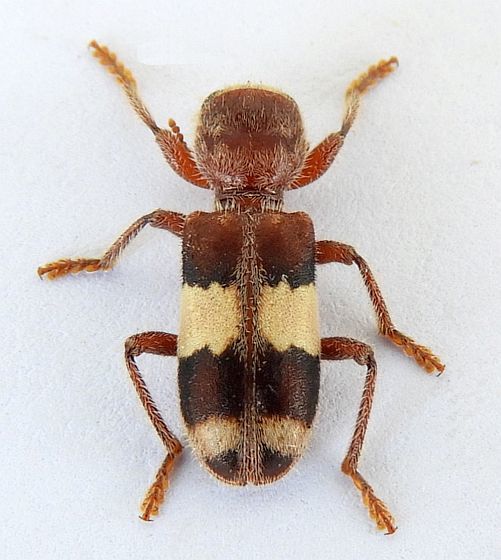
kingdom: Animalia
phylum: Arthropoda
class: Insecta
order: Coleoptera
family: Cleridae
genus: Enoclerus
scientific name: Enoclerus quadrisignatus
